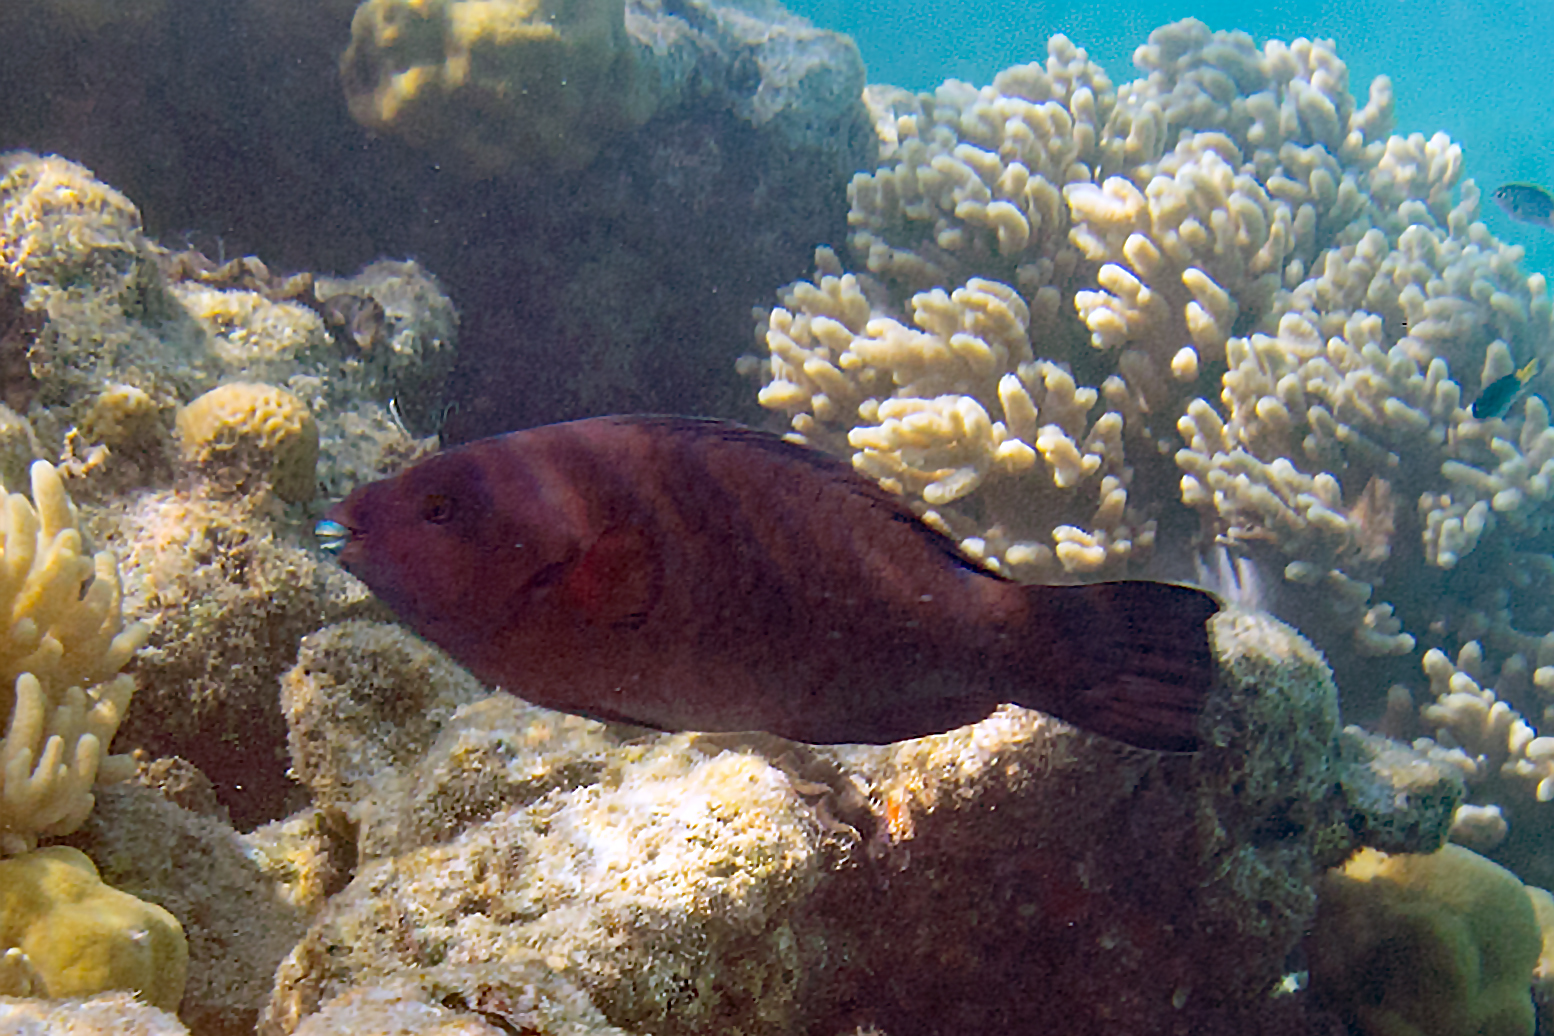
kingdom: Animalia
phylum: Chordata
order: Perciformes
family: Scaridae
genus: Scarus
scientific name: Scarus altipinnis
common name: Minifin parrotfish
